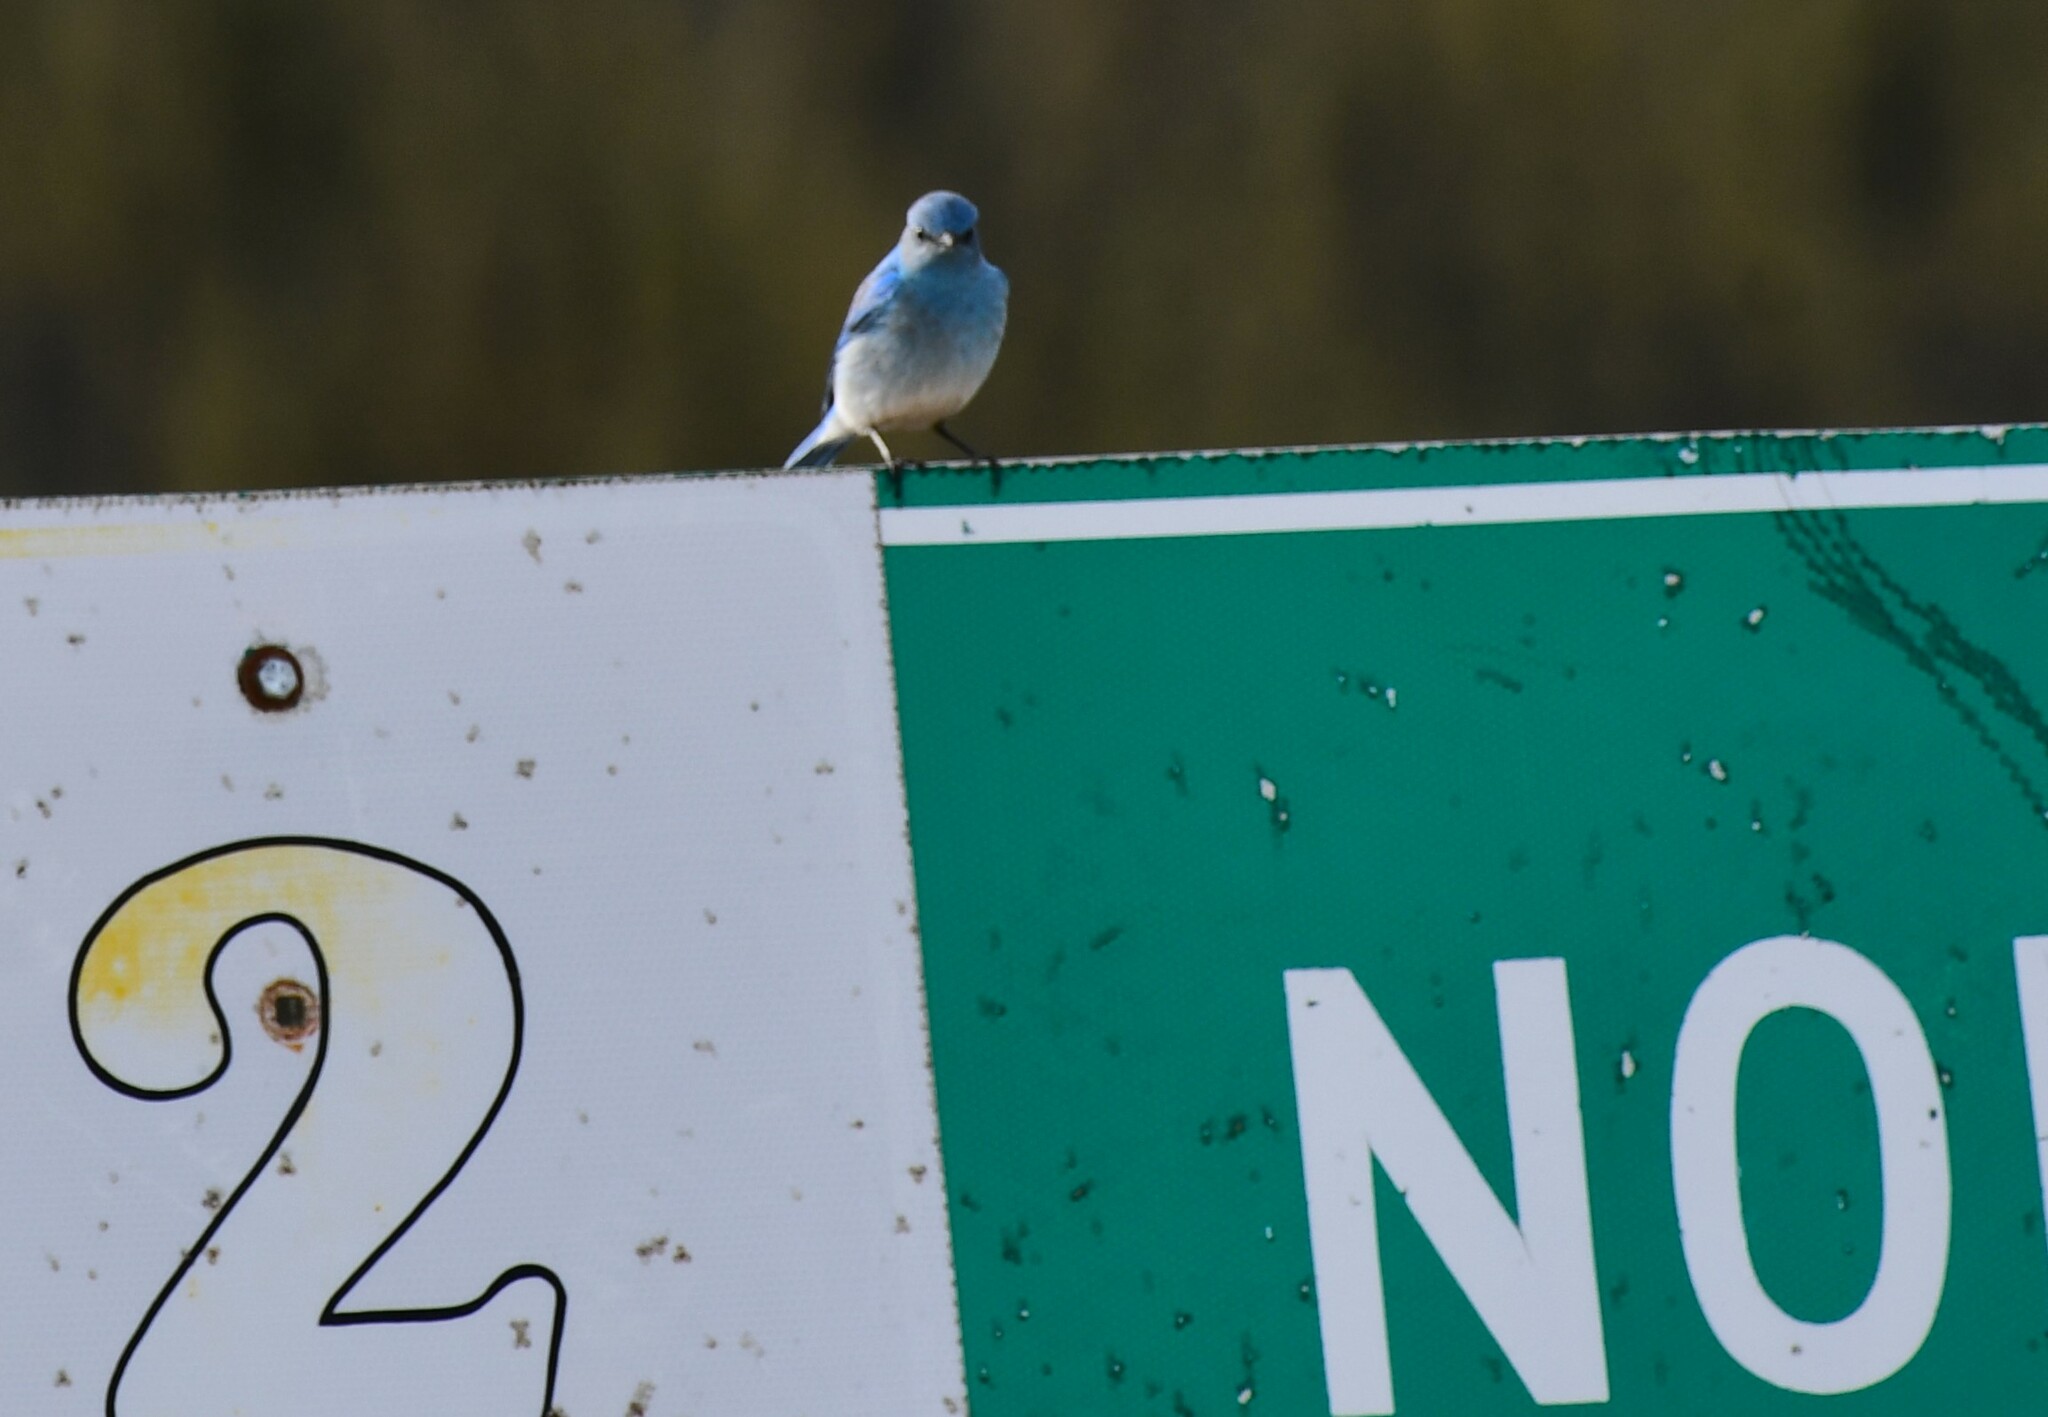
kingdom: Animalia
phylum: Chordata
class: Aves
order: Passeriformes
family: Turdidae
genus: Sialia
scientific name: Sialia currucoides
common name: Mountain bluebird
